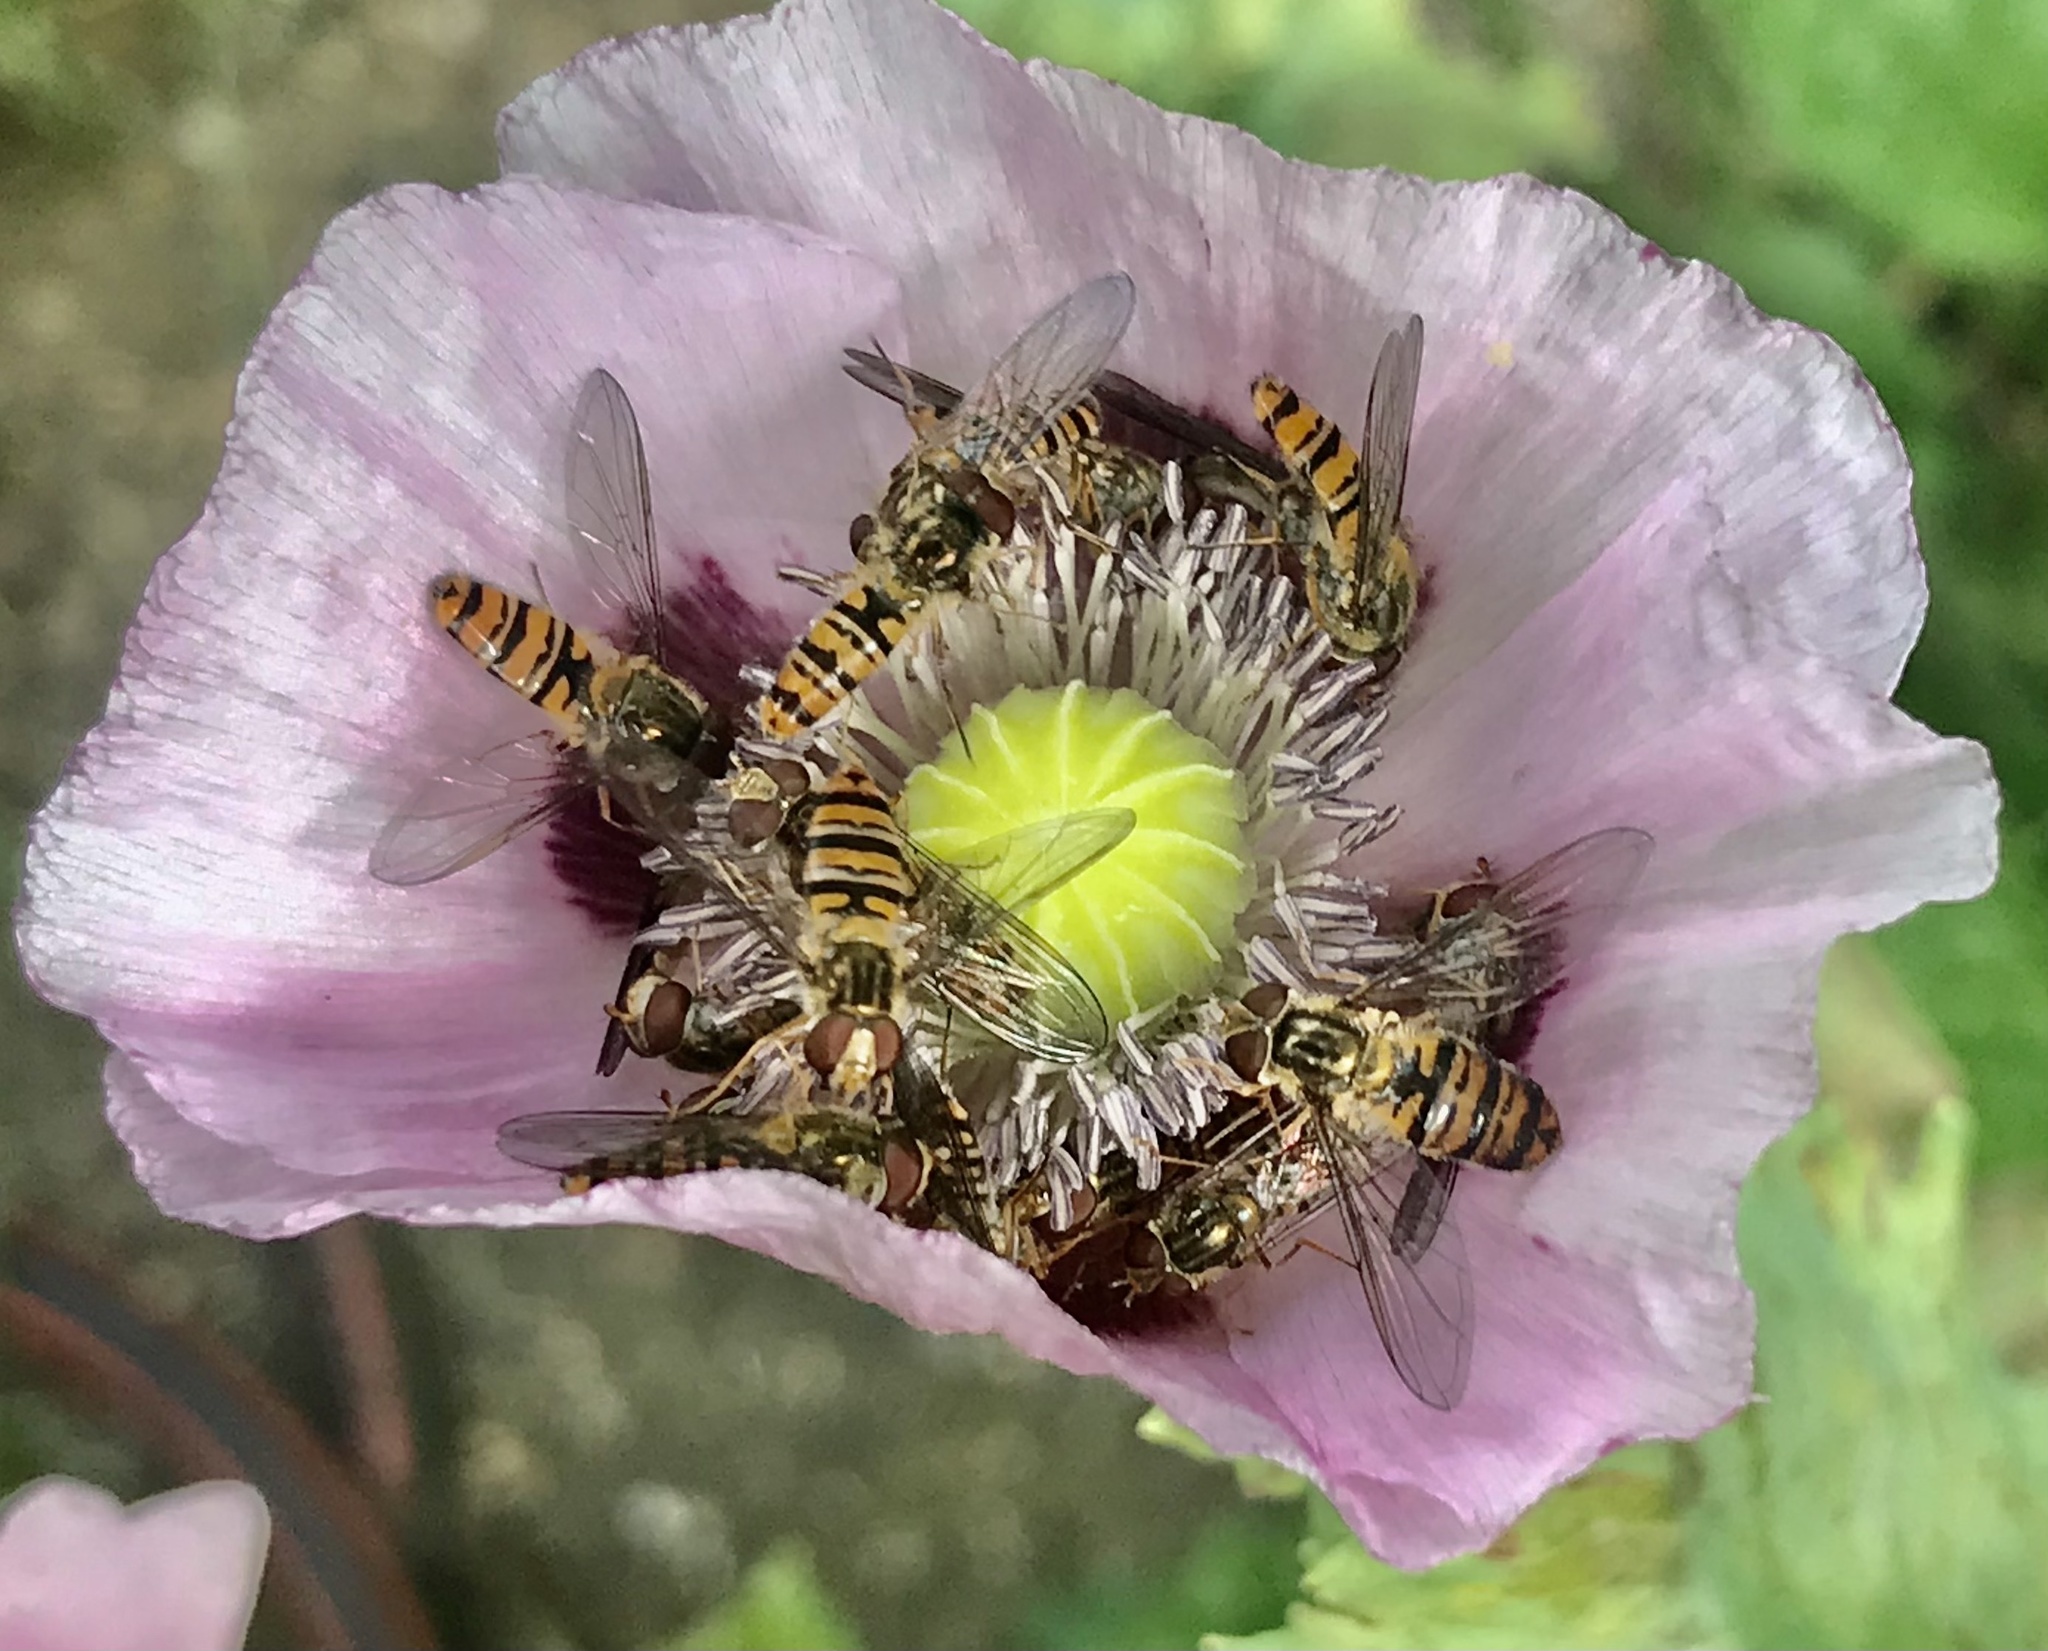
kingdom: Animalia
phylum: Arthropoda
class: Insecta
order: Diptera
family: Syrphidae
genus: Episyrphus
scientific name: Episyrphus balteatus
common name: Marmalade hoverfly
